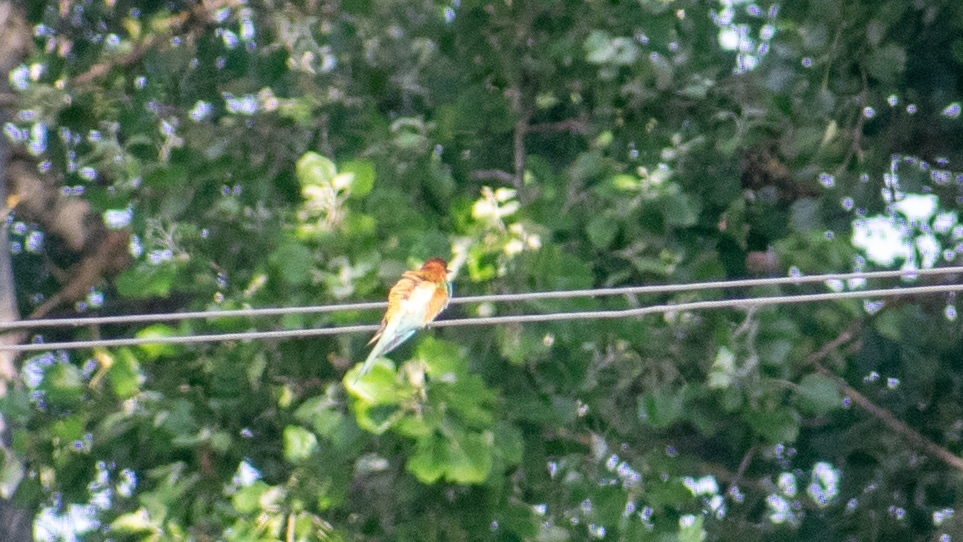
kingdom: Animalia
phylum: Chordata
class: Aves
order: Coraciiformes
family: Meropidae
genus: Merops
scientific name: Merops apiaster
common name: European bee-eater
